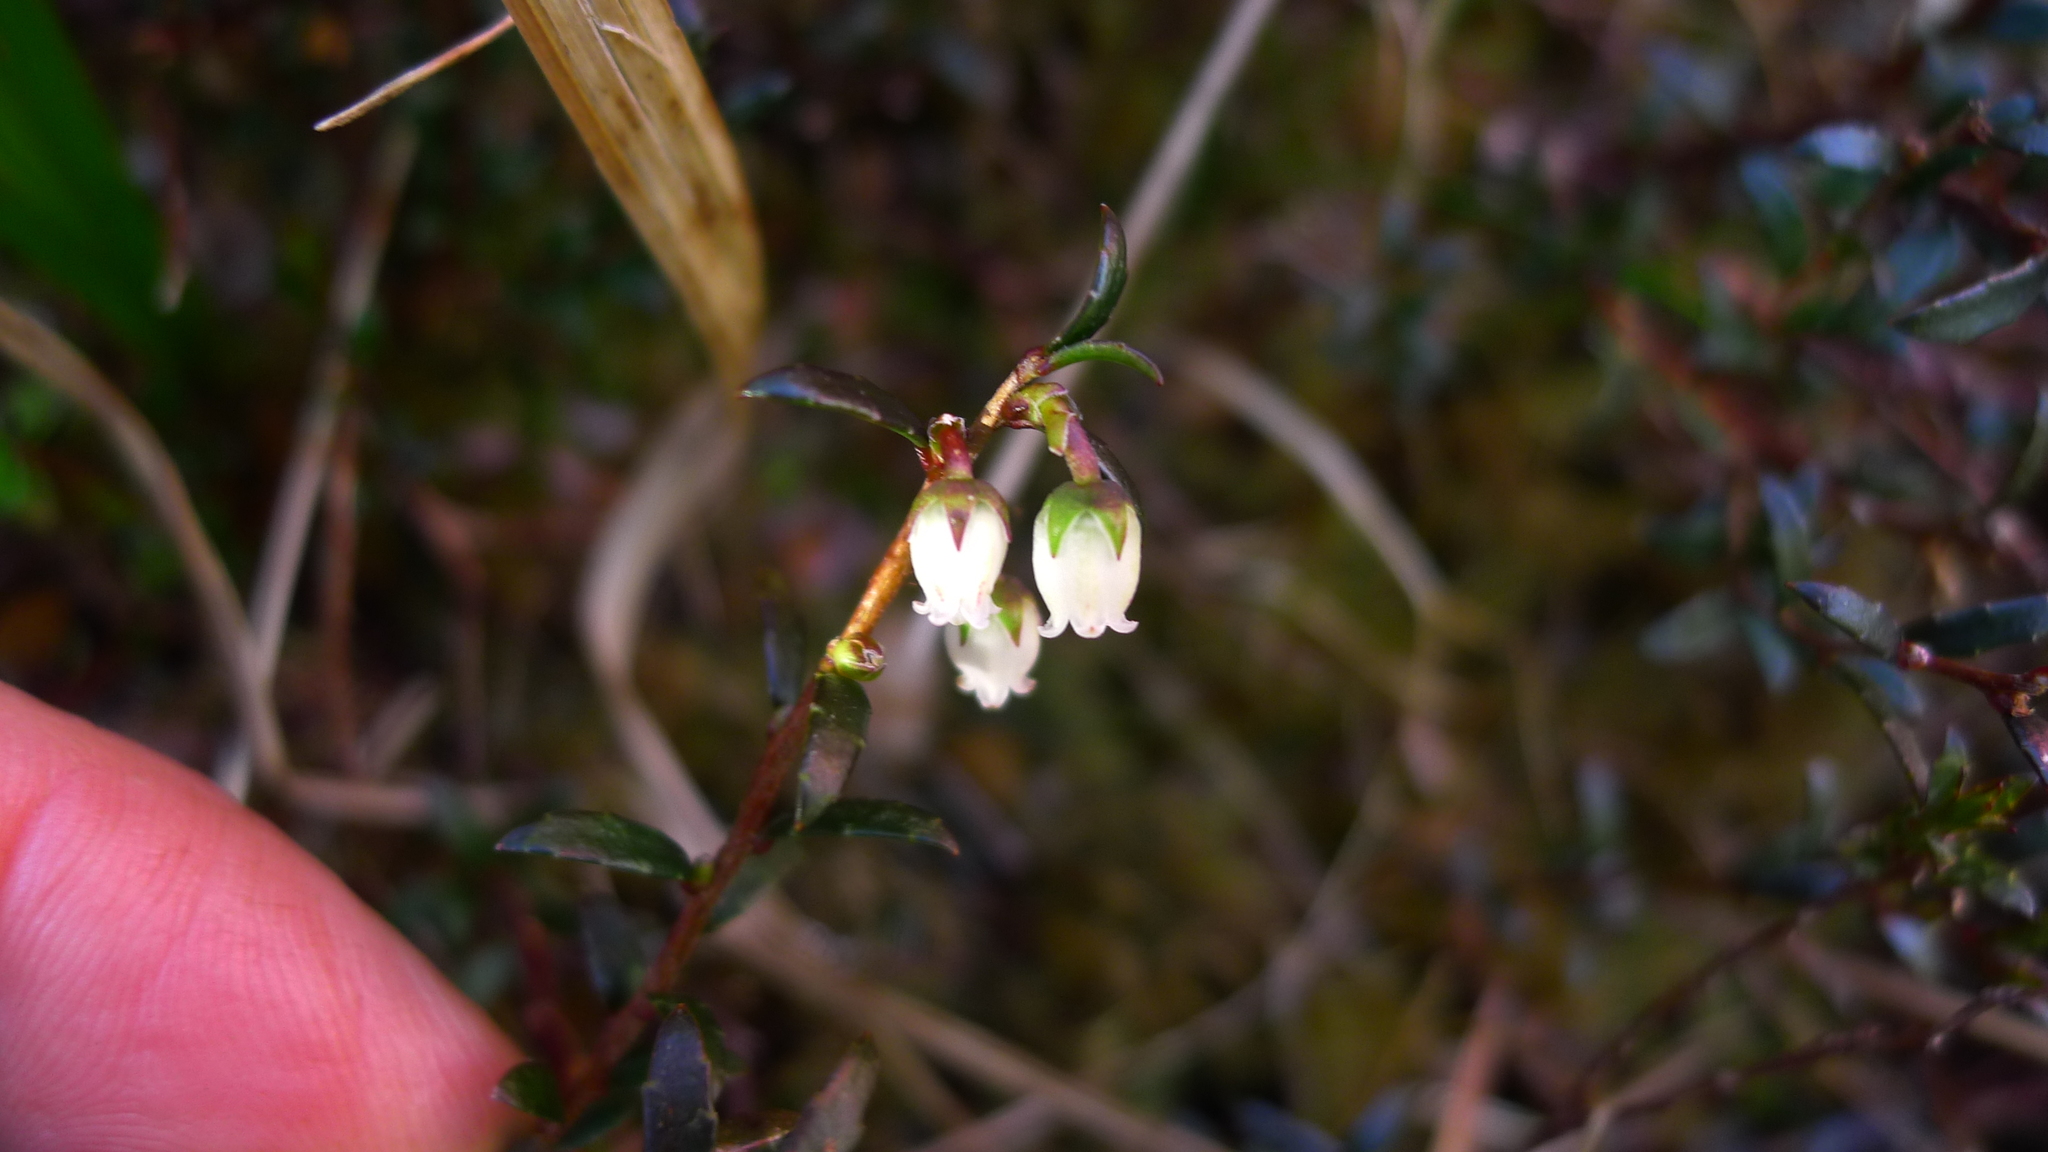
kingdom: Plantae
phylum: Tracheophyta
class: Magnoliopsida
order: Ericales
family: Ericaceae
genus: Gaultheria
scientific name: Gaultheria macrostigma
